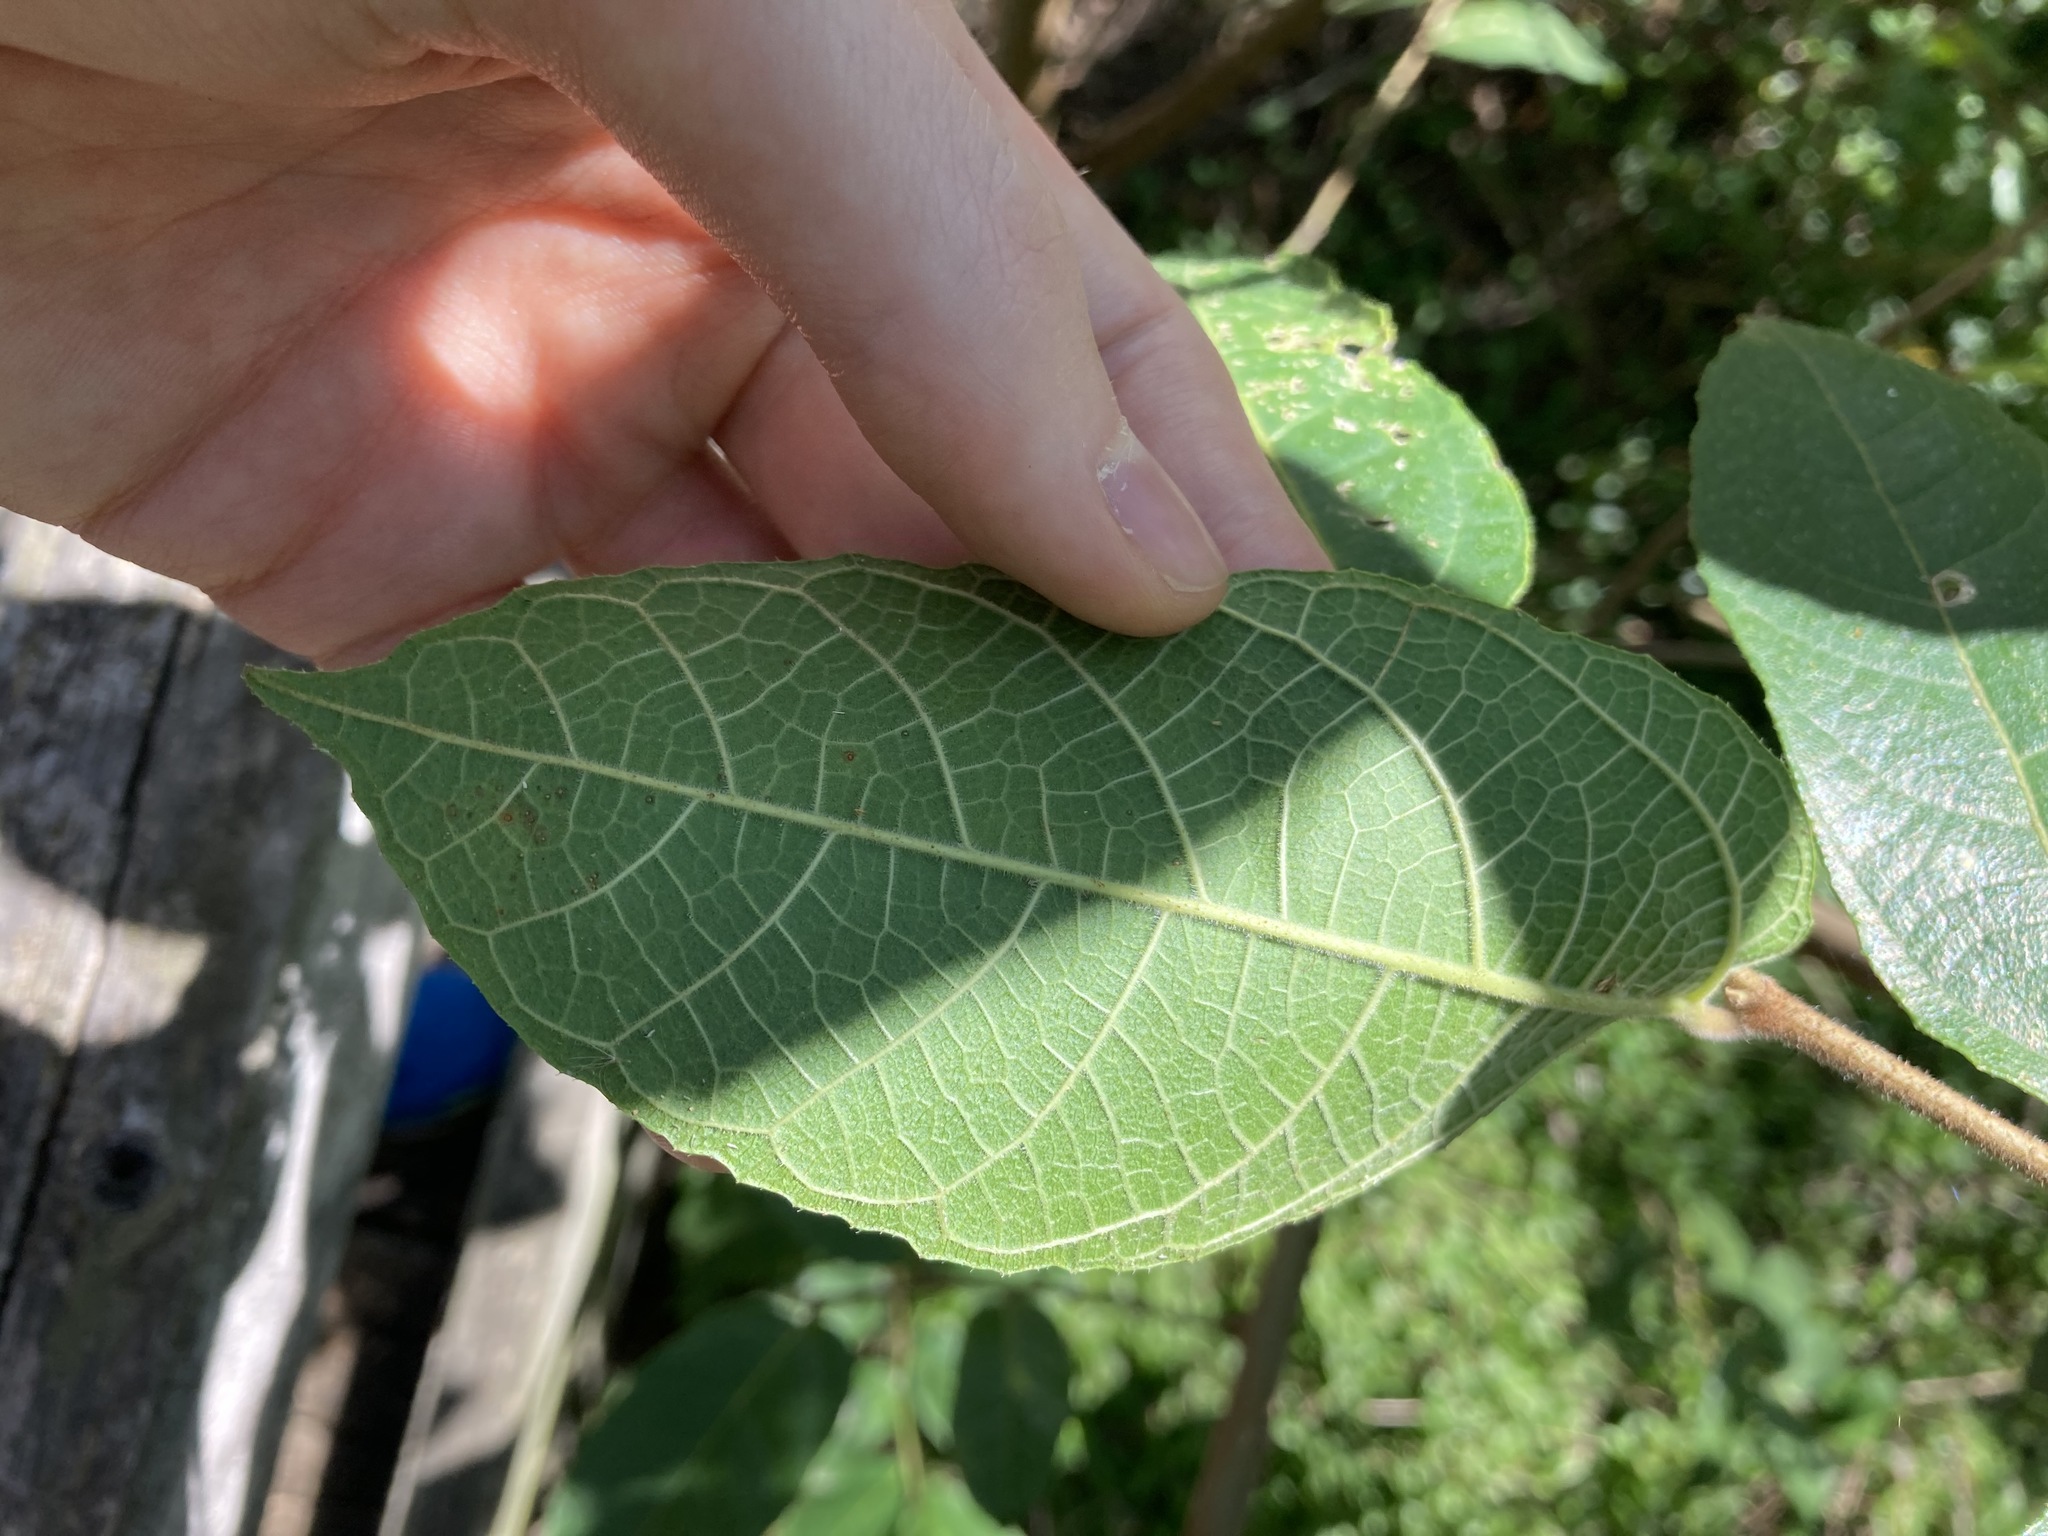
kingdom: Plantae
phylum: Tracheophyta
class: Magnoliopsida
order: Rosales
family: Moraceae
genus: Ficus
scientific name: Ficus coronata
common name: Creek sandpaper fig
